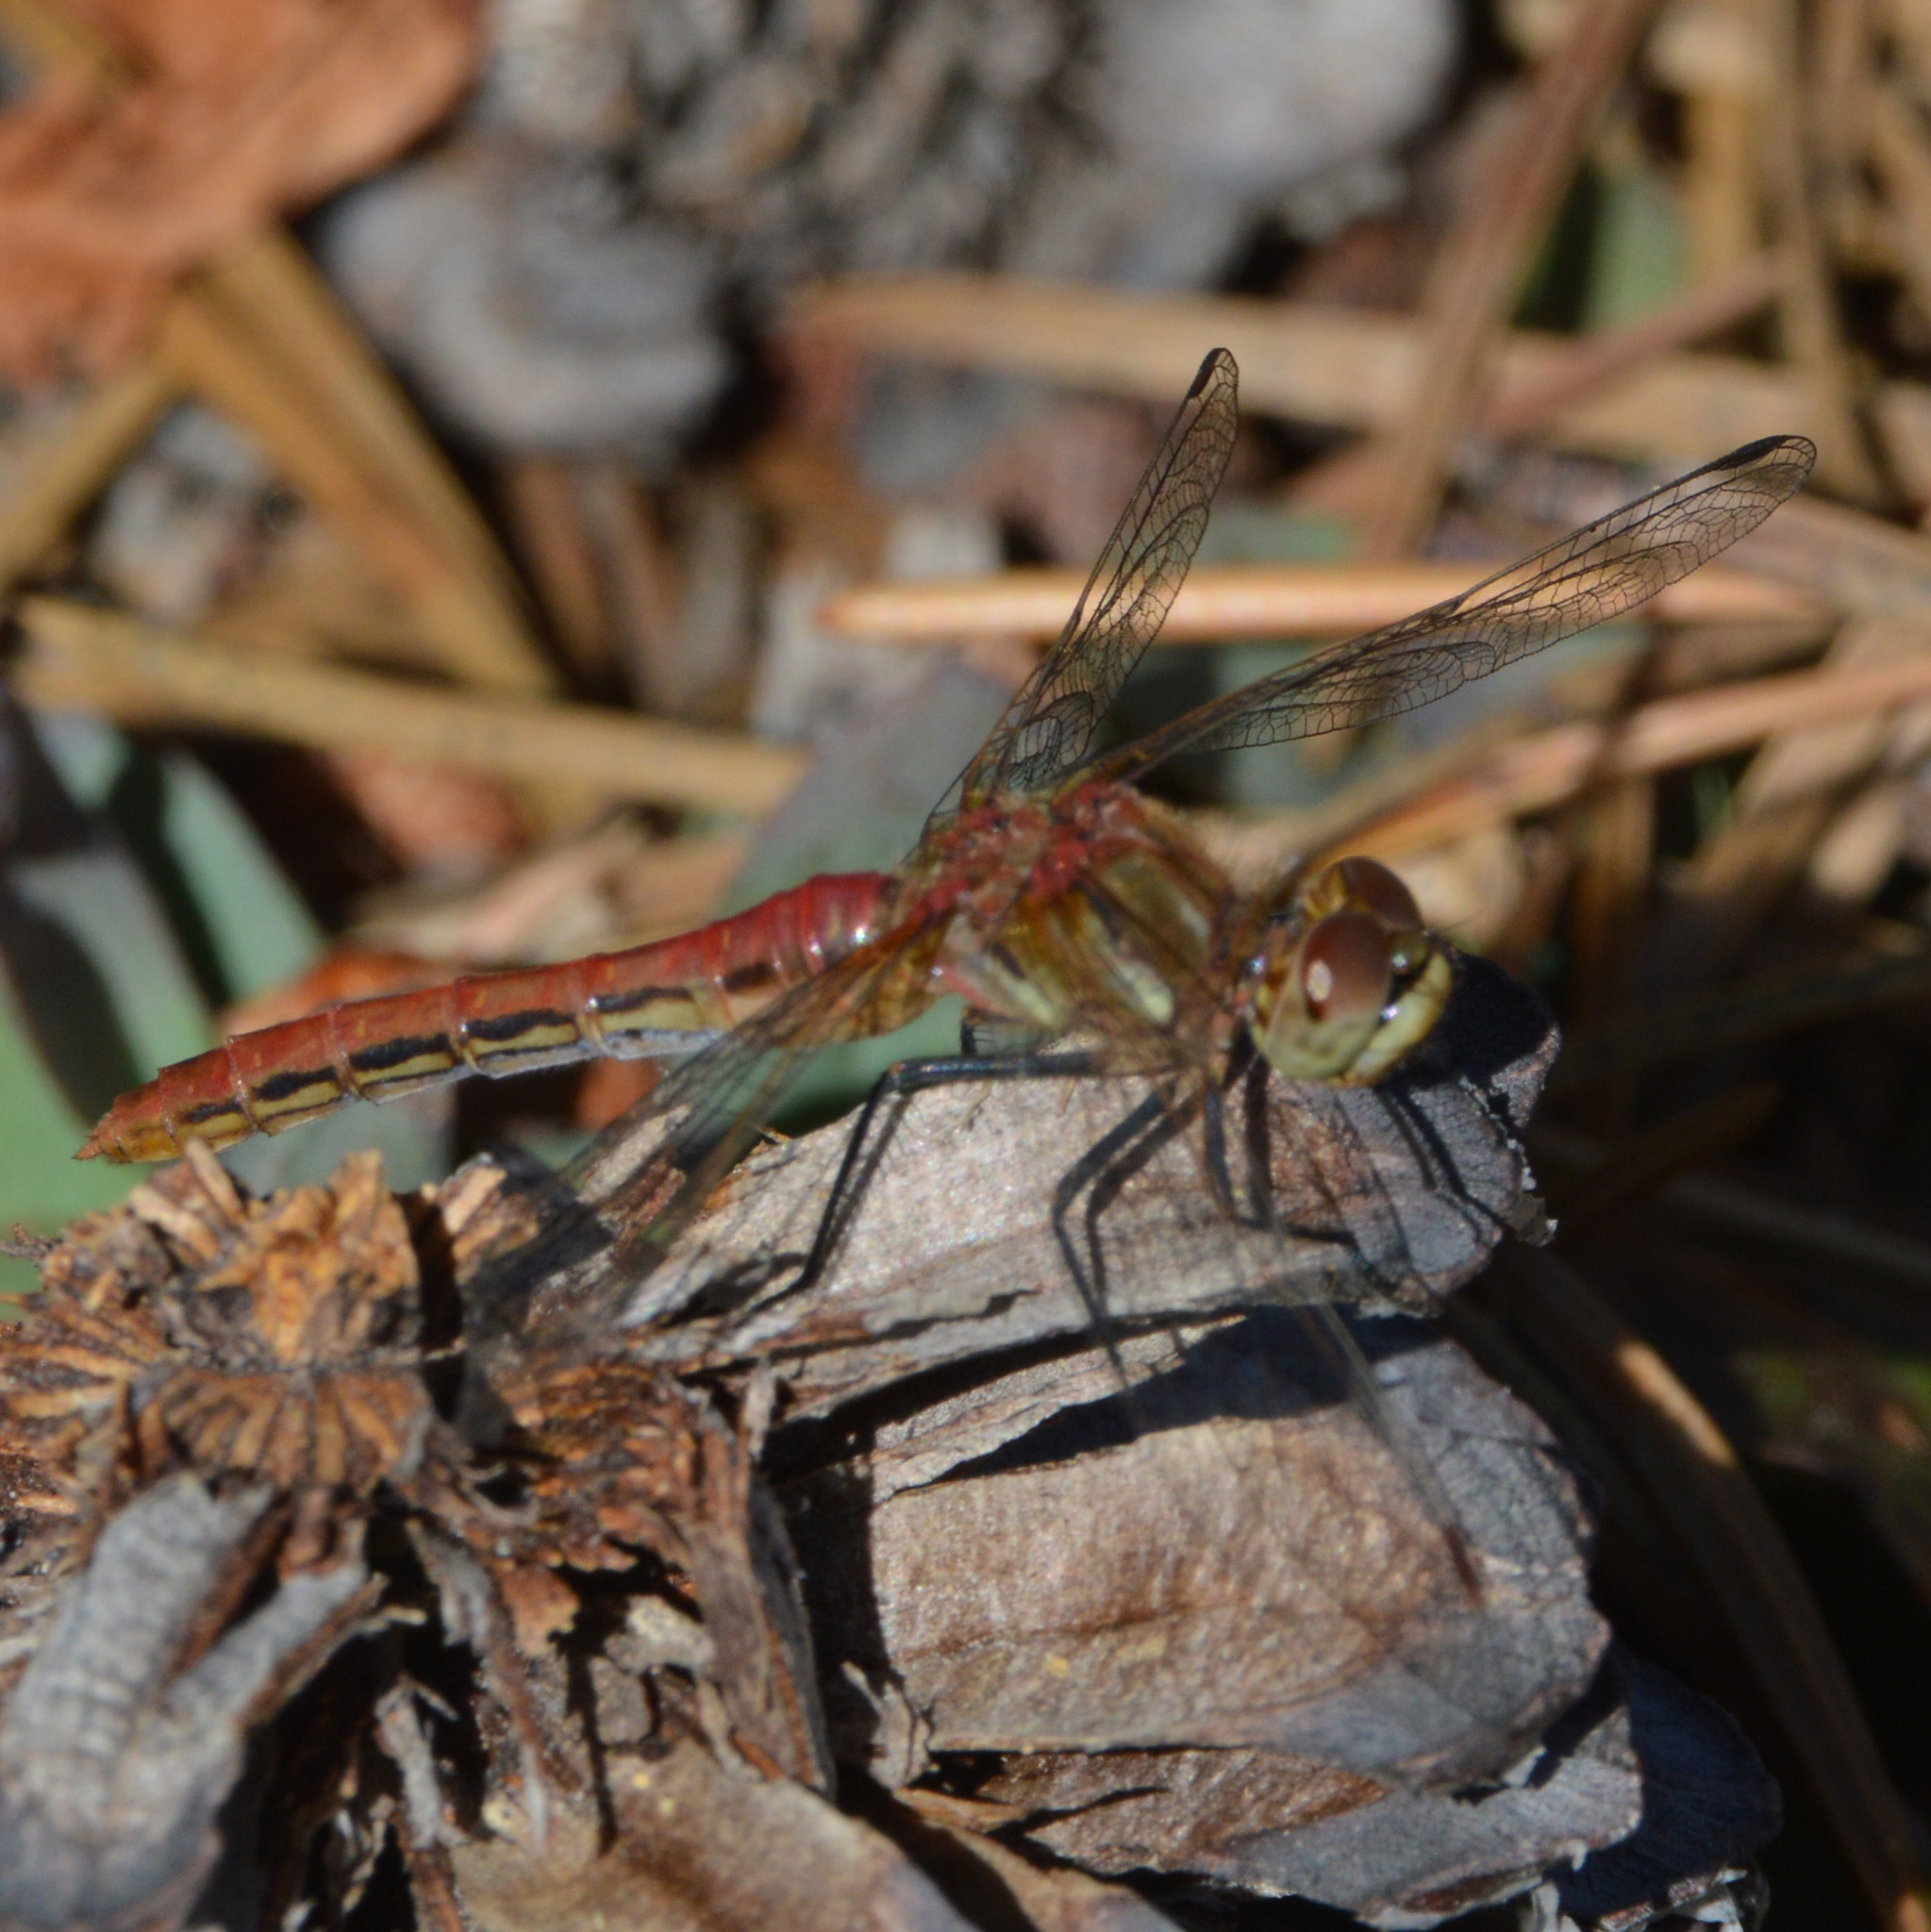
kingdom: Animalia
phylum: Arthropoda
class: Insecta
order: Odonata
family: Libellulidae
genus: Sympetrum
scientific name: Sympetrum pallipes
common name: Striped meadowhawk
